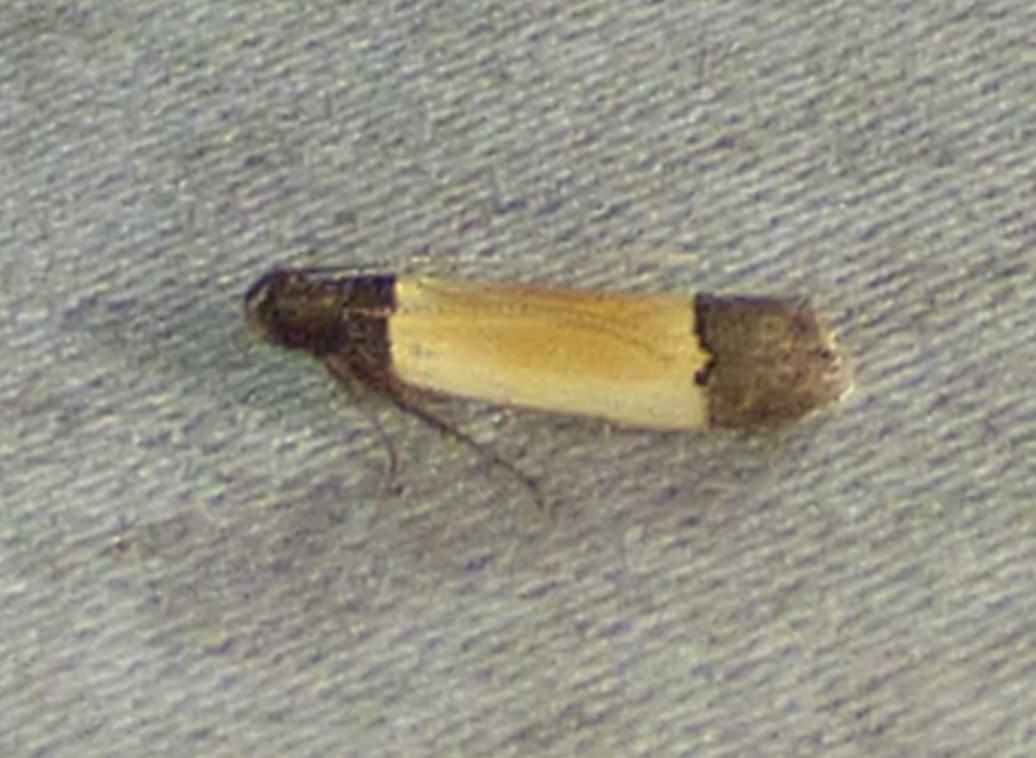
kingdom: Animalia
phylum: Arthropoda
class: Insecta
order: Lepidoptera
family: Gelechiidae
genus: Anacampsis
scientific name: Anacampsis coverdalella
